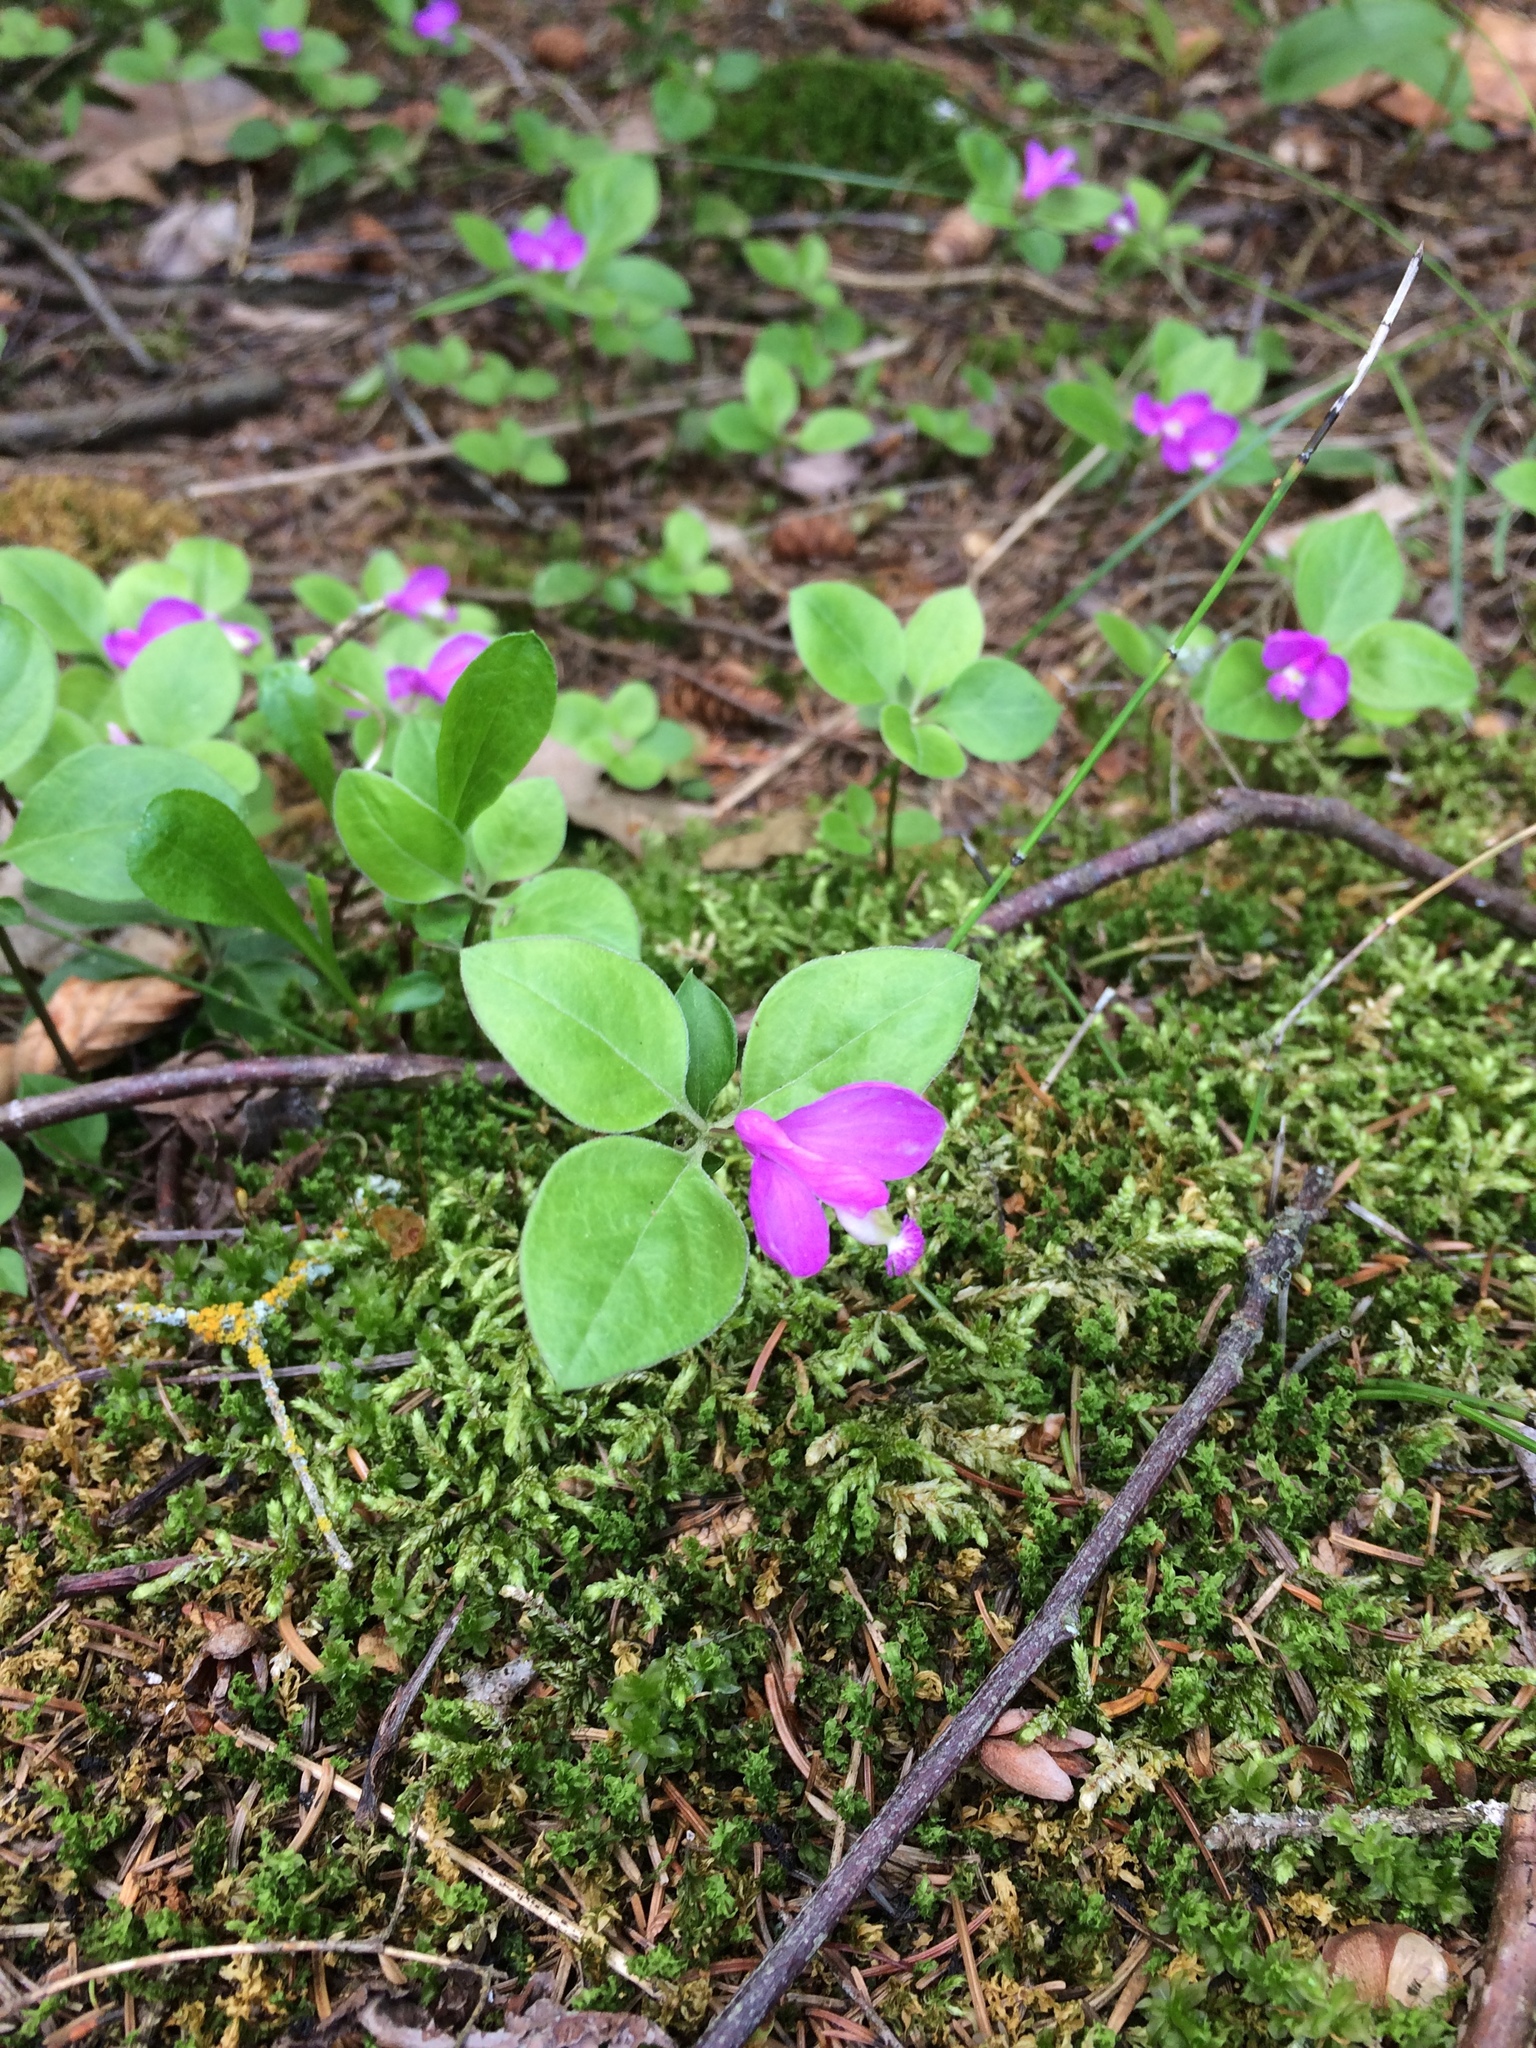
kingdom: Plantae
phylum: Tracheophyta
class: Magnoliopsida
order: Fabales
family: Polygalaceae
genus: Polygaloides
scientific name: Polygaloides paucifolia
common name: Bird-on-the-wing
